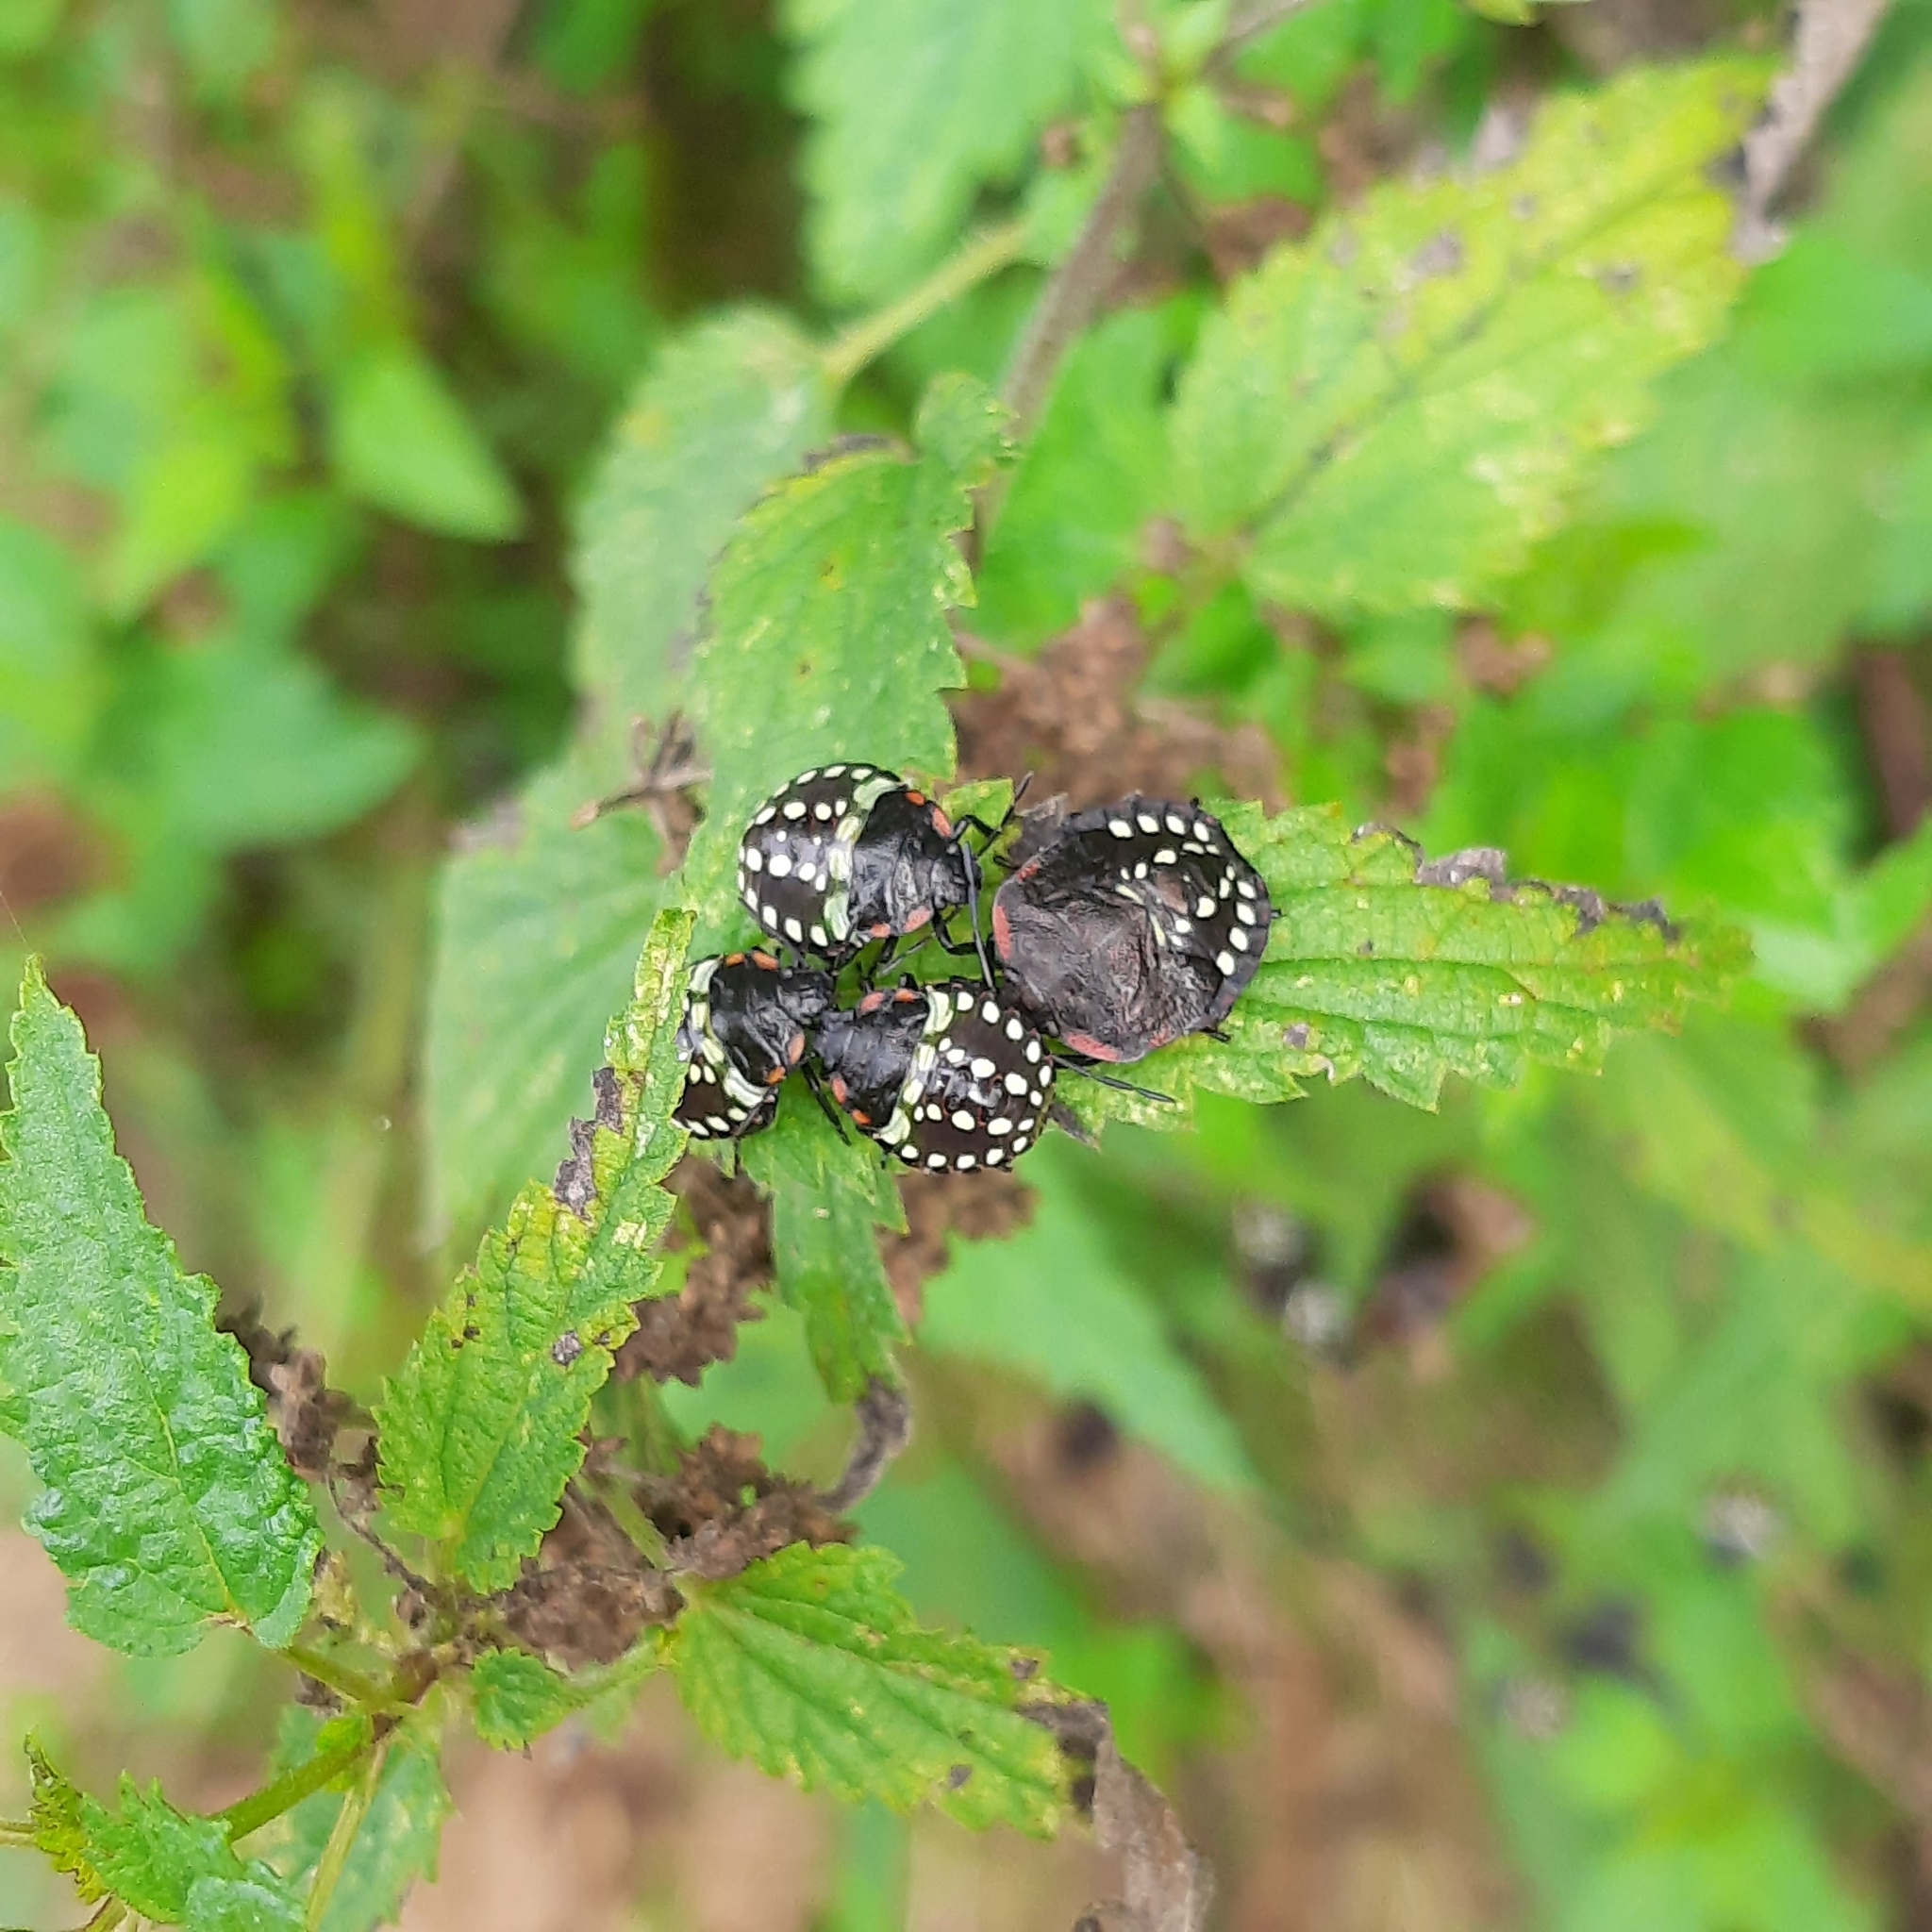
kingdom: Animalia
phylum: Arthropoda
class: Insecta
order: Hemiptera
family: Pentatomidae
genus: Nezara
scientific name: Nezara viridula
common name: Southern green stink bug
